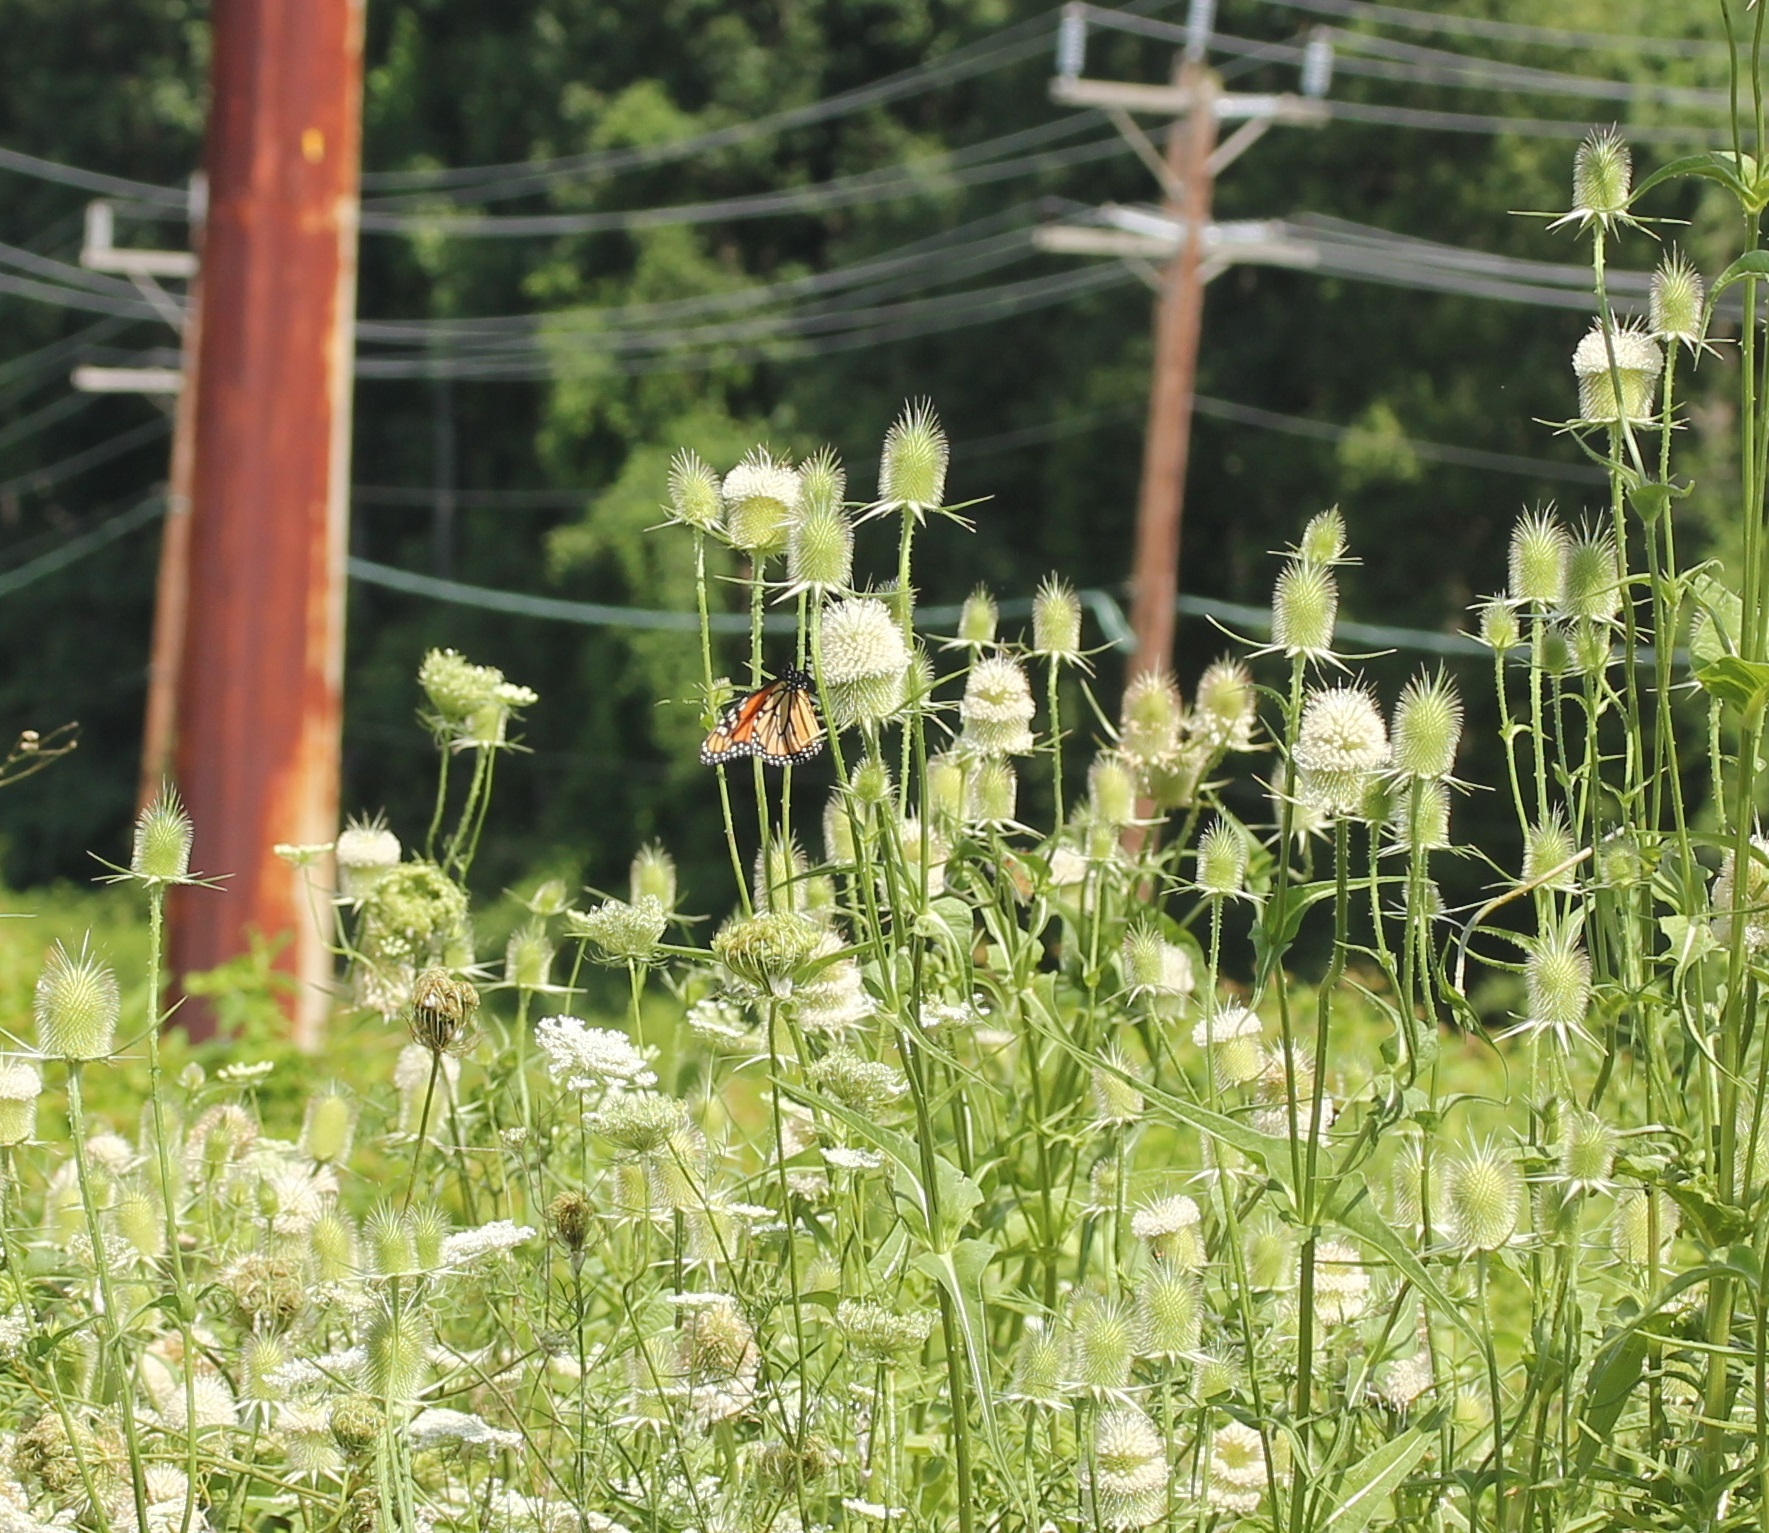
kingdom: Animalia
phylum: Arthropoda
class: Insecta
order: Lepidoptera
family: Nymphalidae
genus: Danaus
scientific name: Danaus plexippus
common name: Monarch
